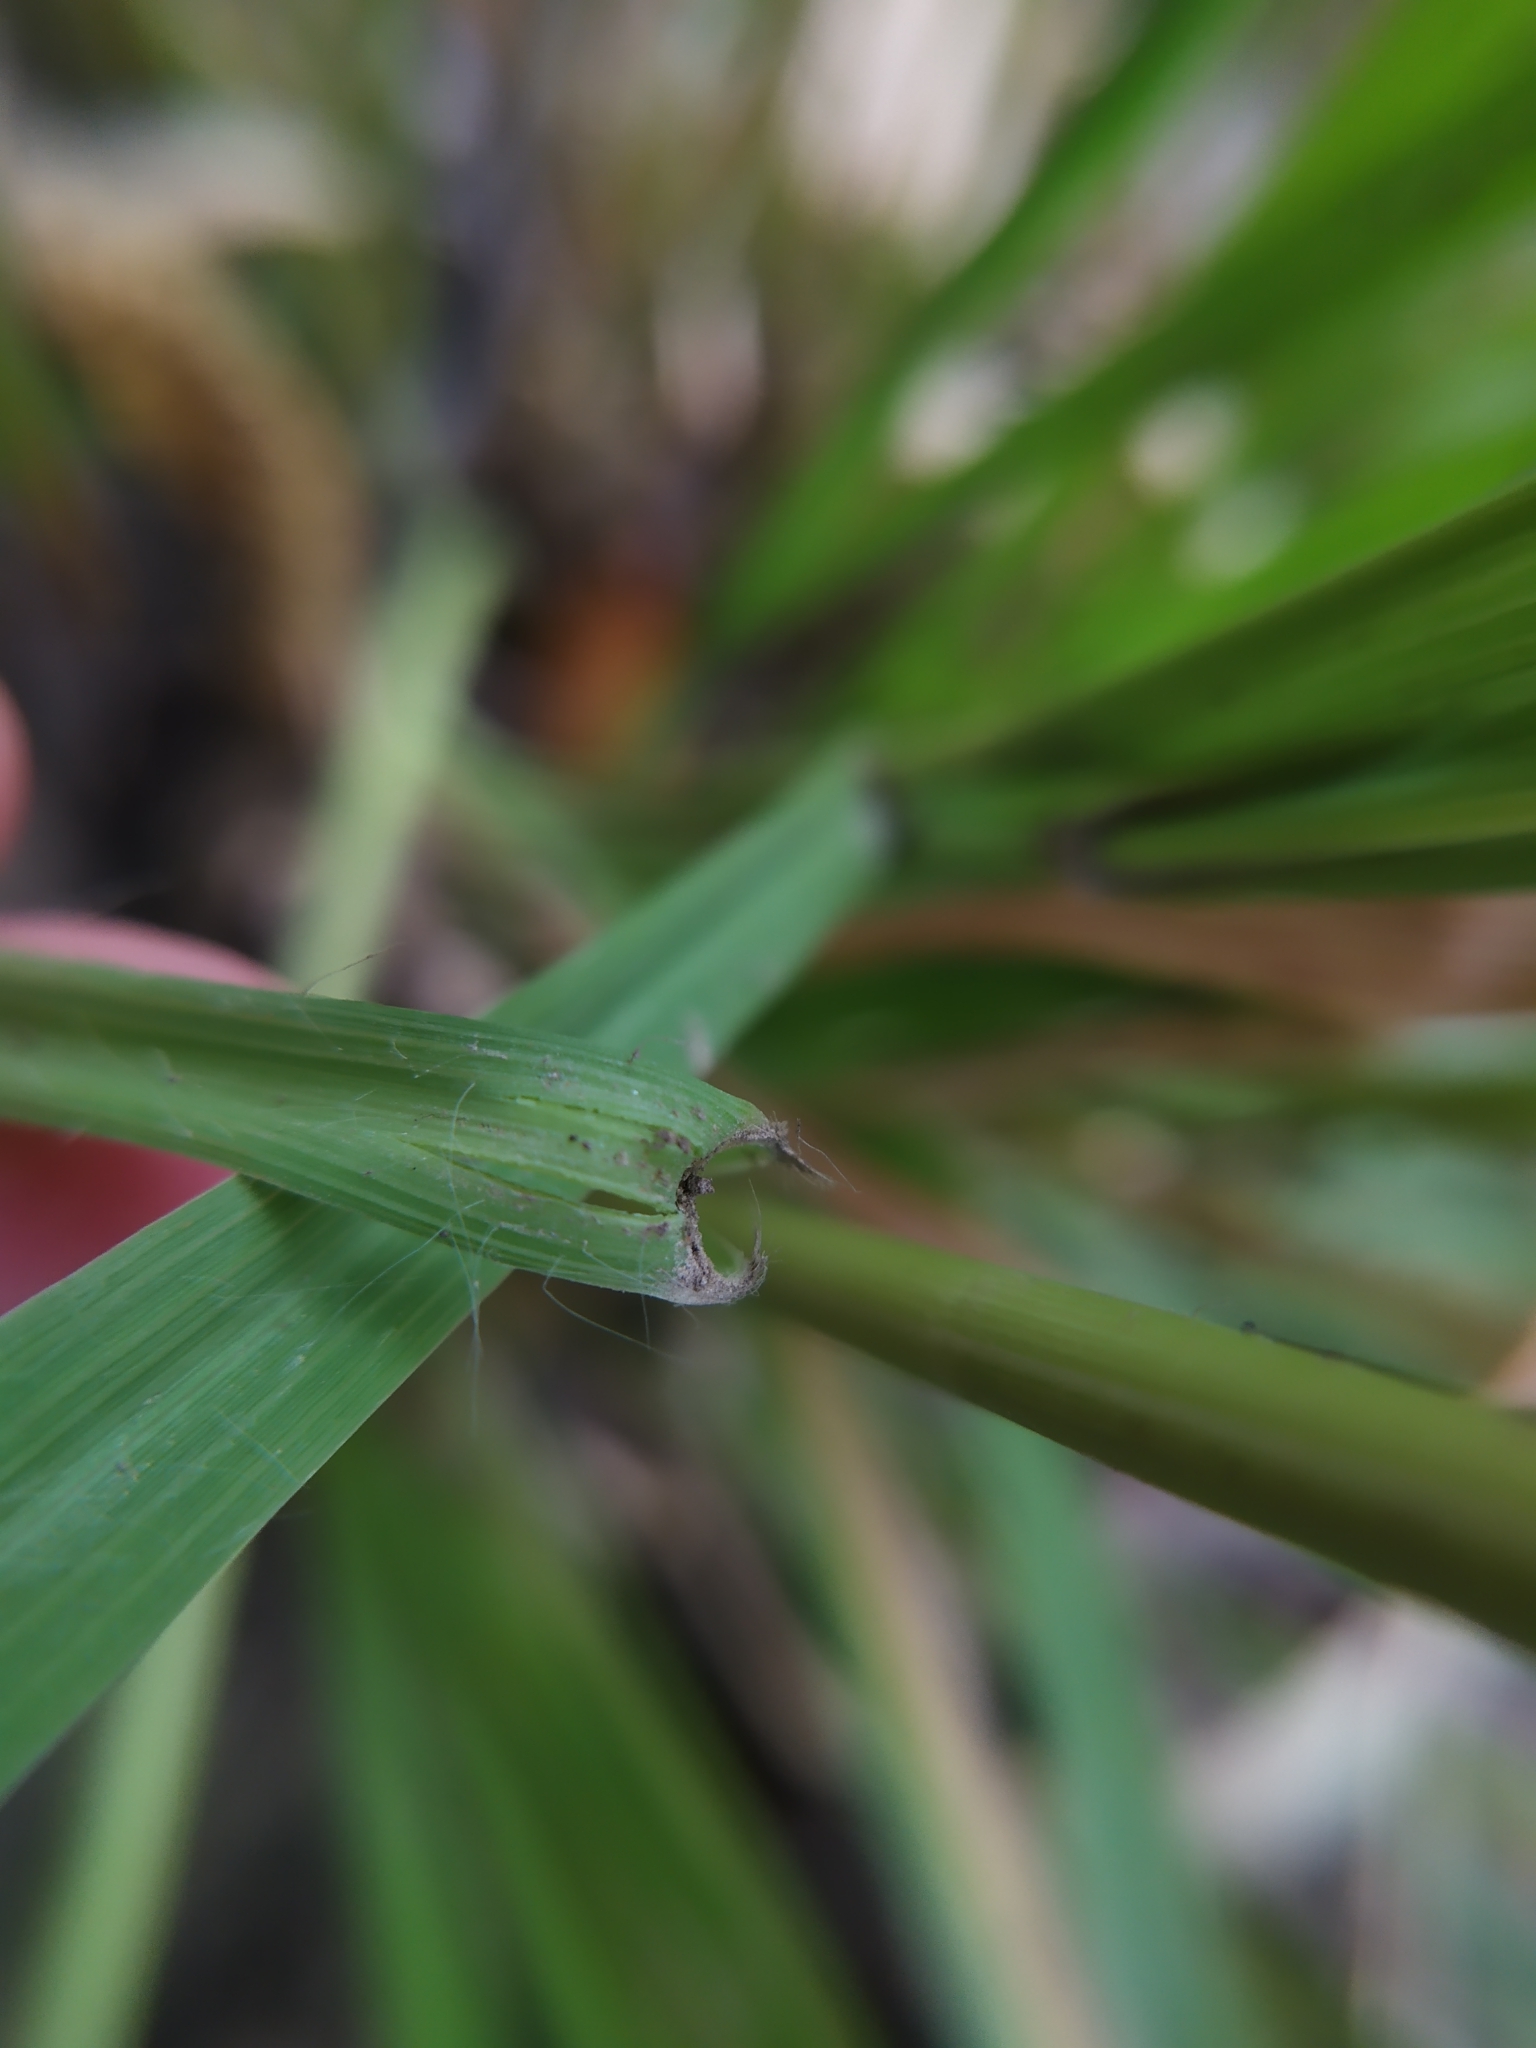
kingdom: Plantae
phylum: Tracheophyta
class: Liliopsida
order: Poales
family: Poaceae
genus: Molinia
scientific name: Molinia caerulea
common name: Purple moor-grass
